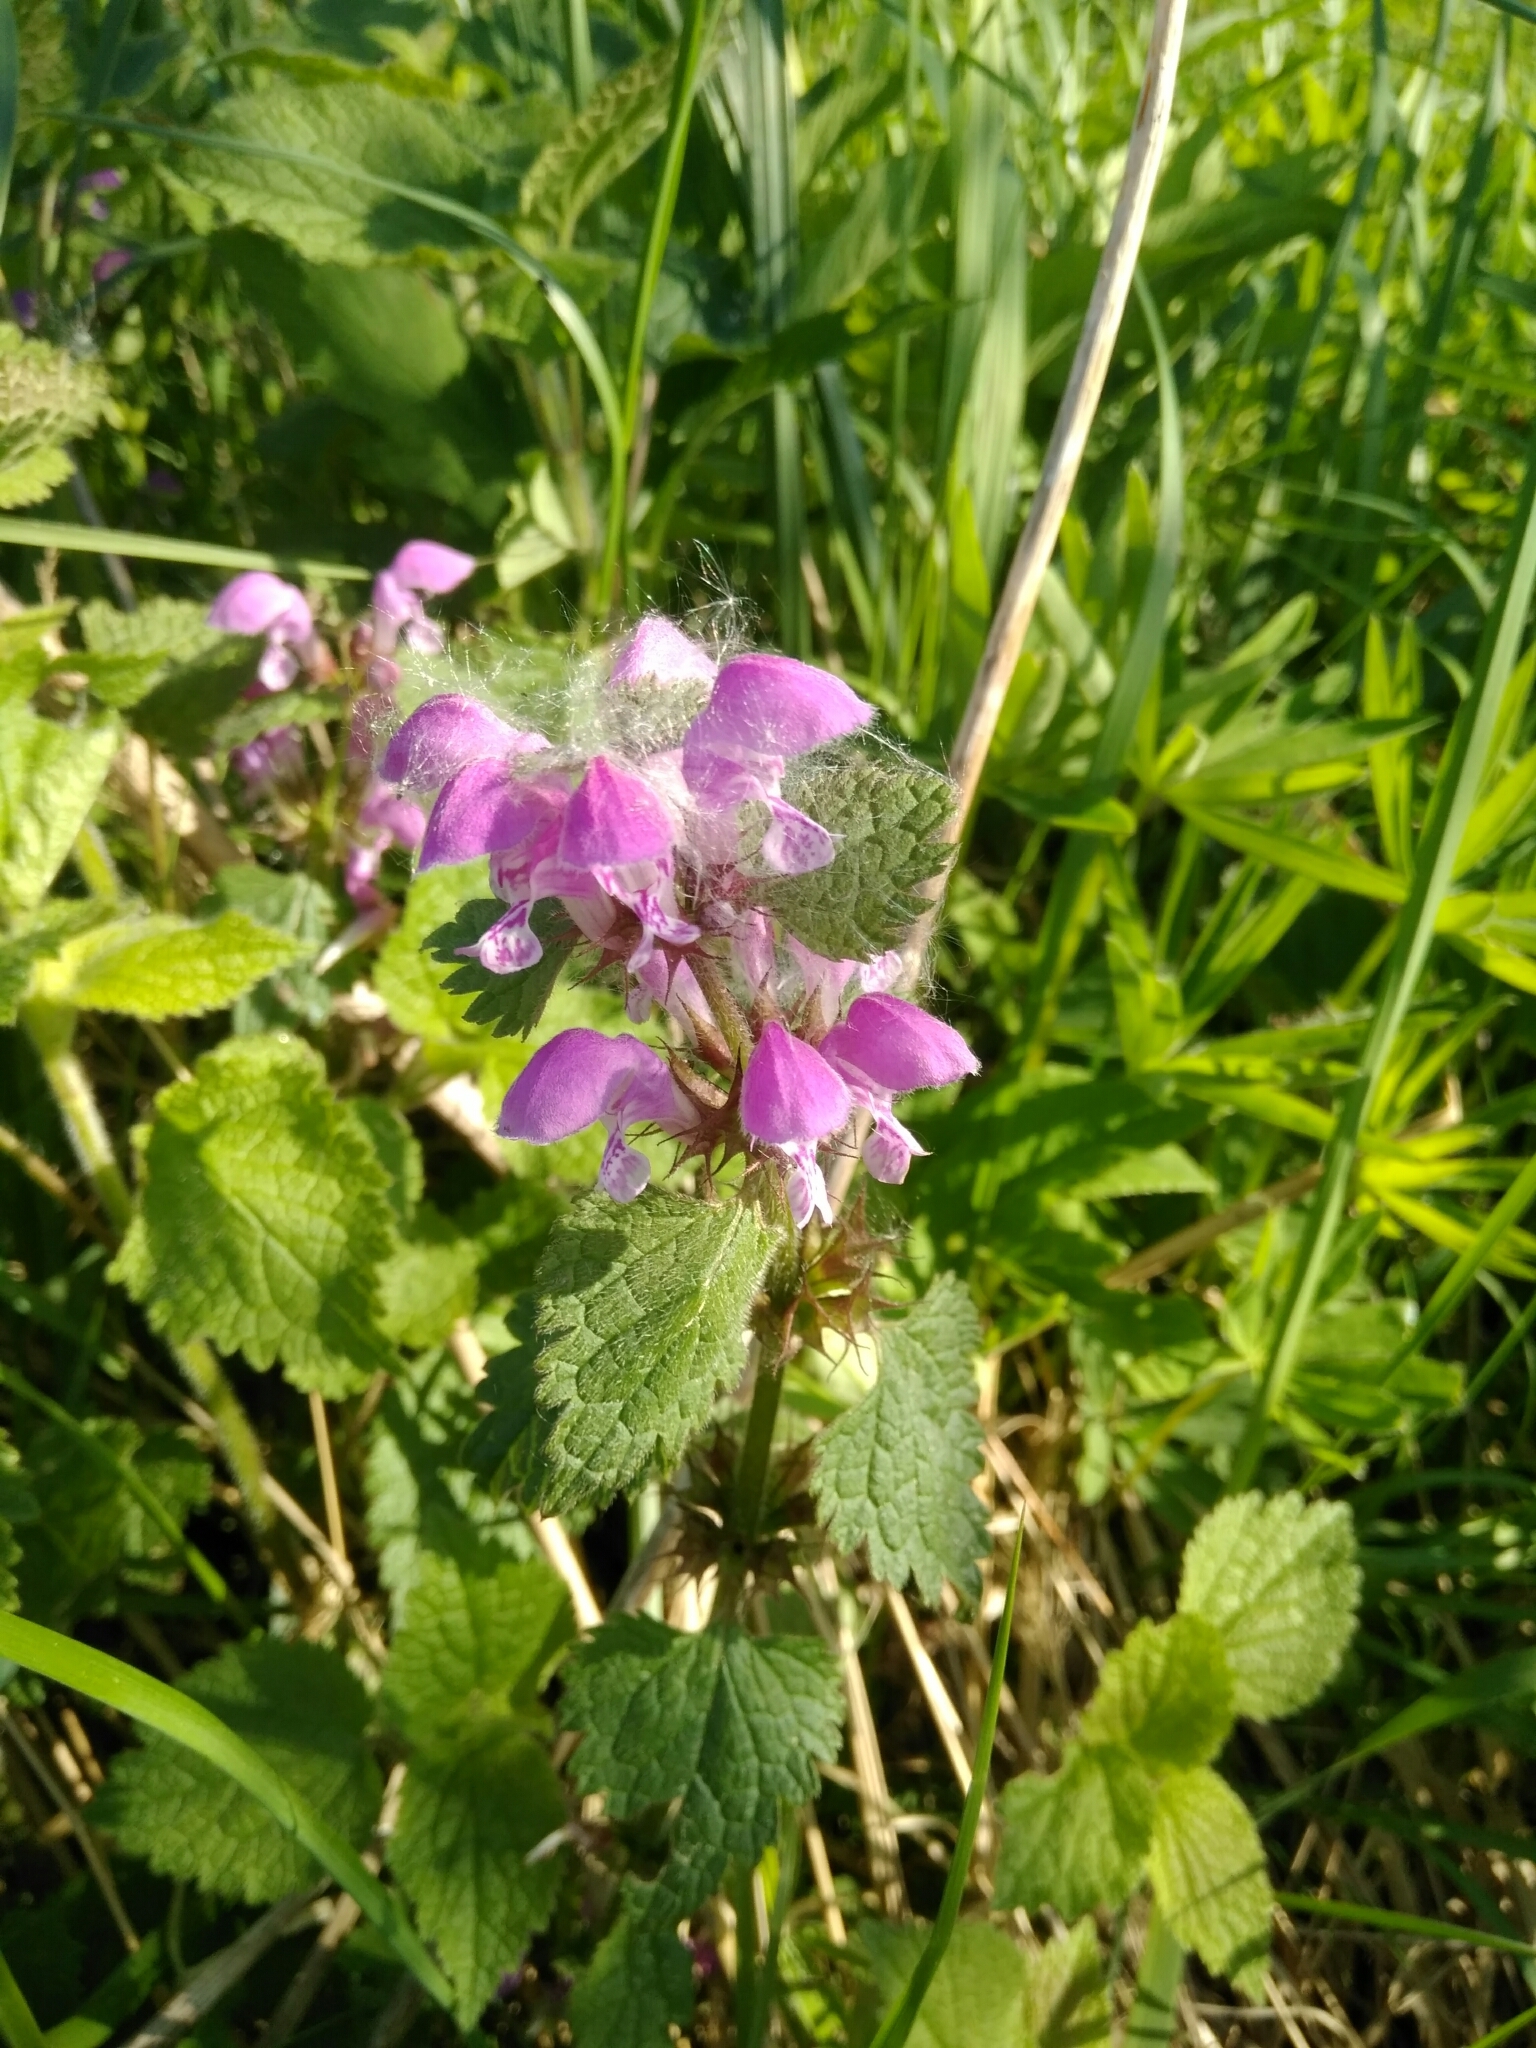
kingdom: Plantae
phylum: Tracheophyta
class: Magnoliopsida
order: Lamiales
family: Lamiaceae
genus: Lamium
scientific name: Lamium maculatum
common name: Spotted dead-nettle
